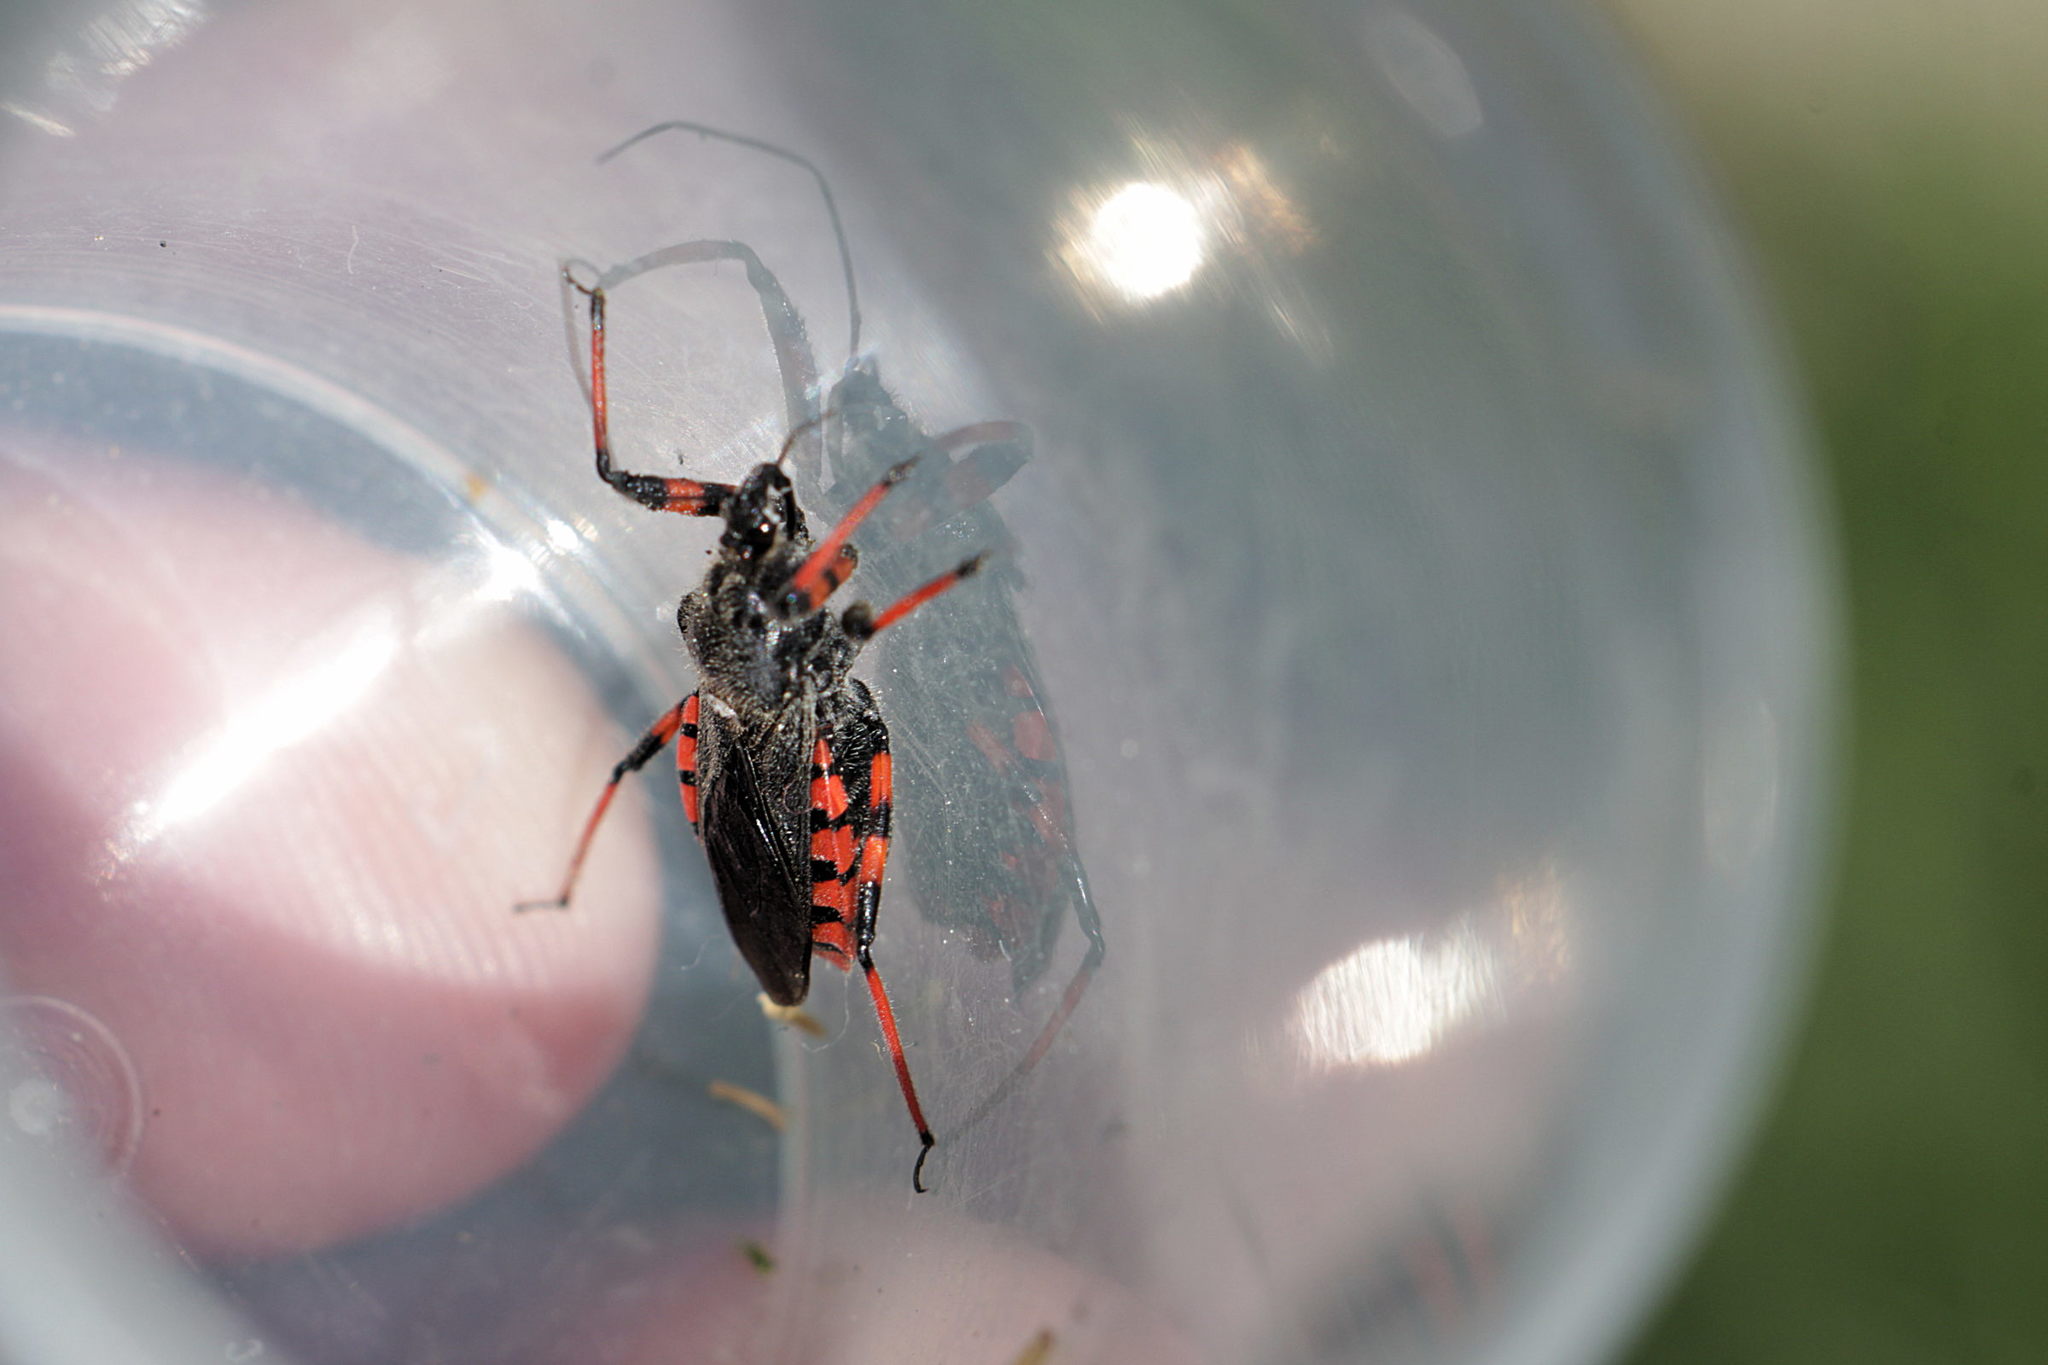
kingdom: Animalia
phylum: Arthropoda
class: Insecta
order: Hemiptera
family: Reduviidae
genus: Rhynocoris
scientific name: Rhynocoris annulatus
